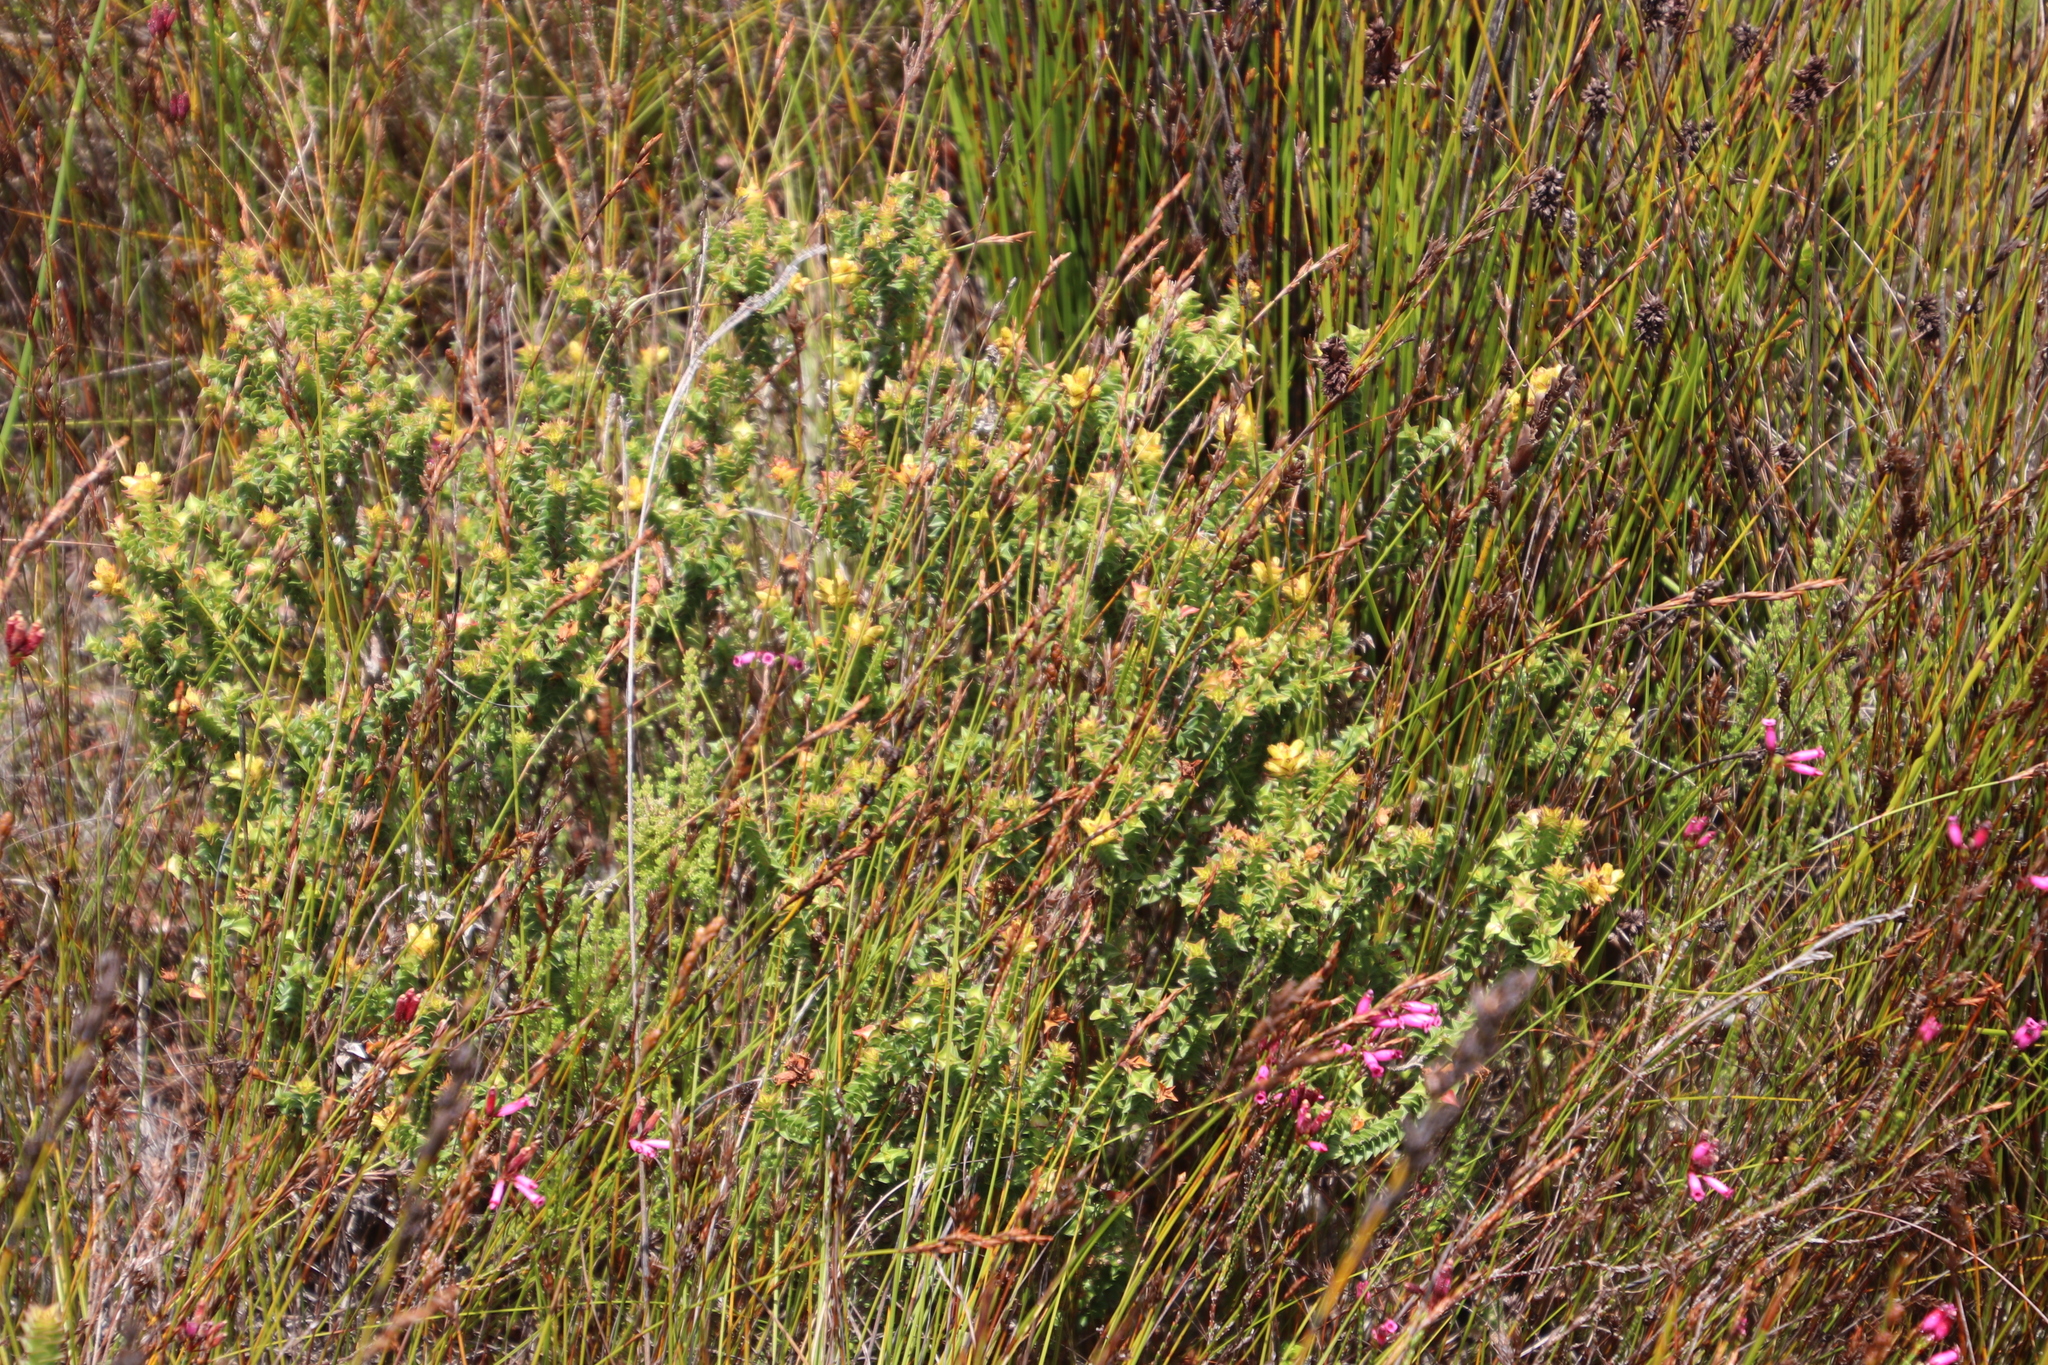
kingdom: Plantae
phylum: Tracheophyta
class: Magnoliopsida
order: Myrtales
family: Penaeaceae
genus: Penaea
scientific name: Penaea mucronata
